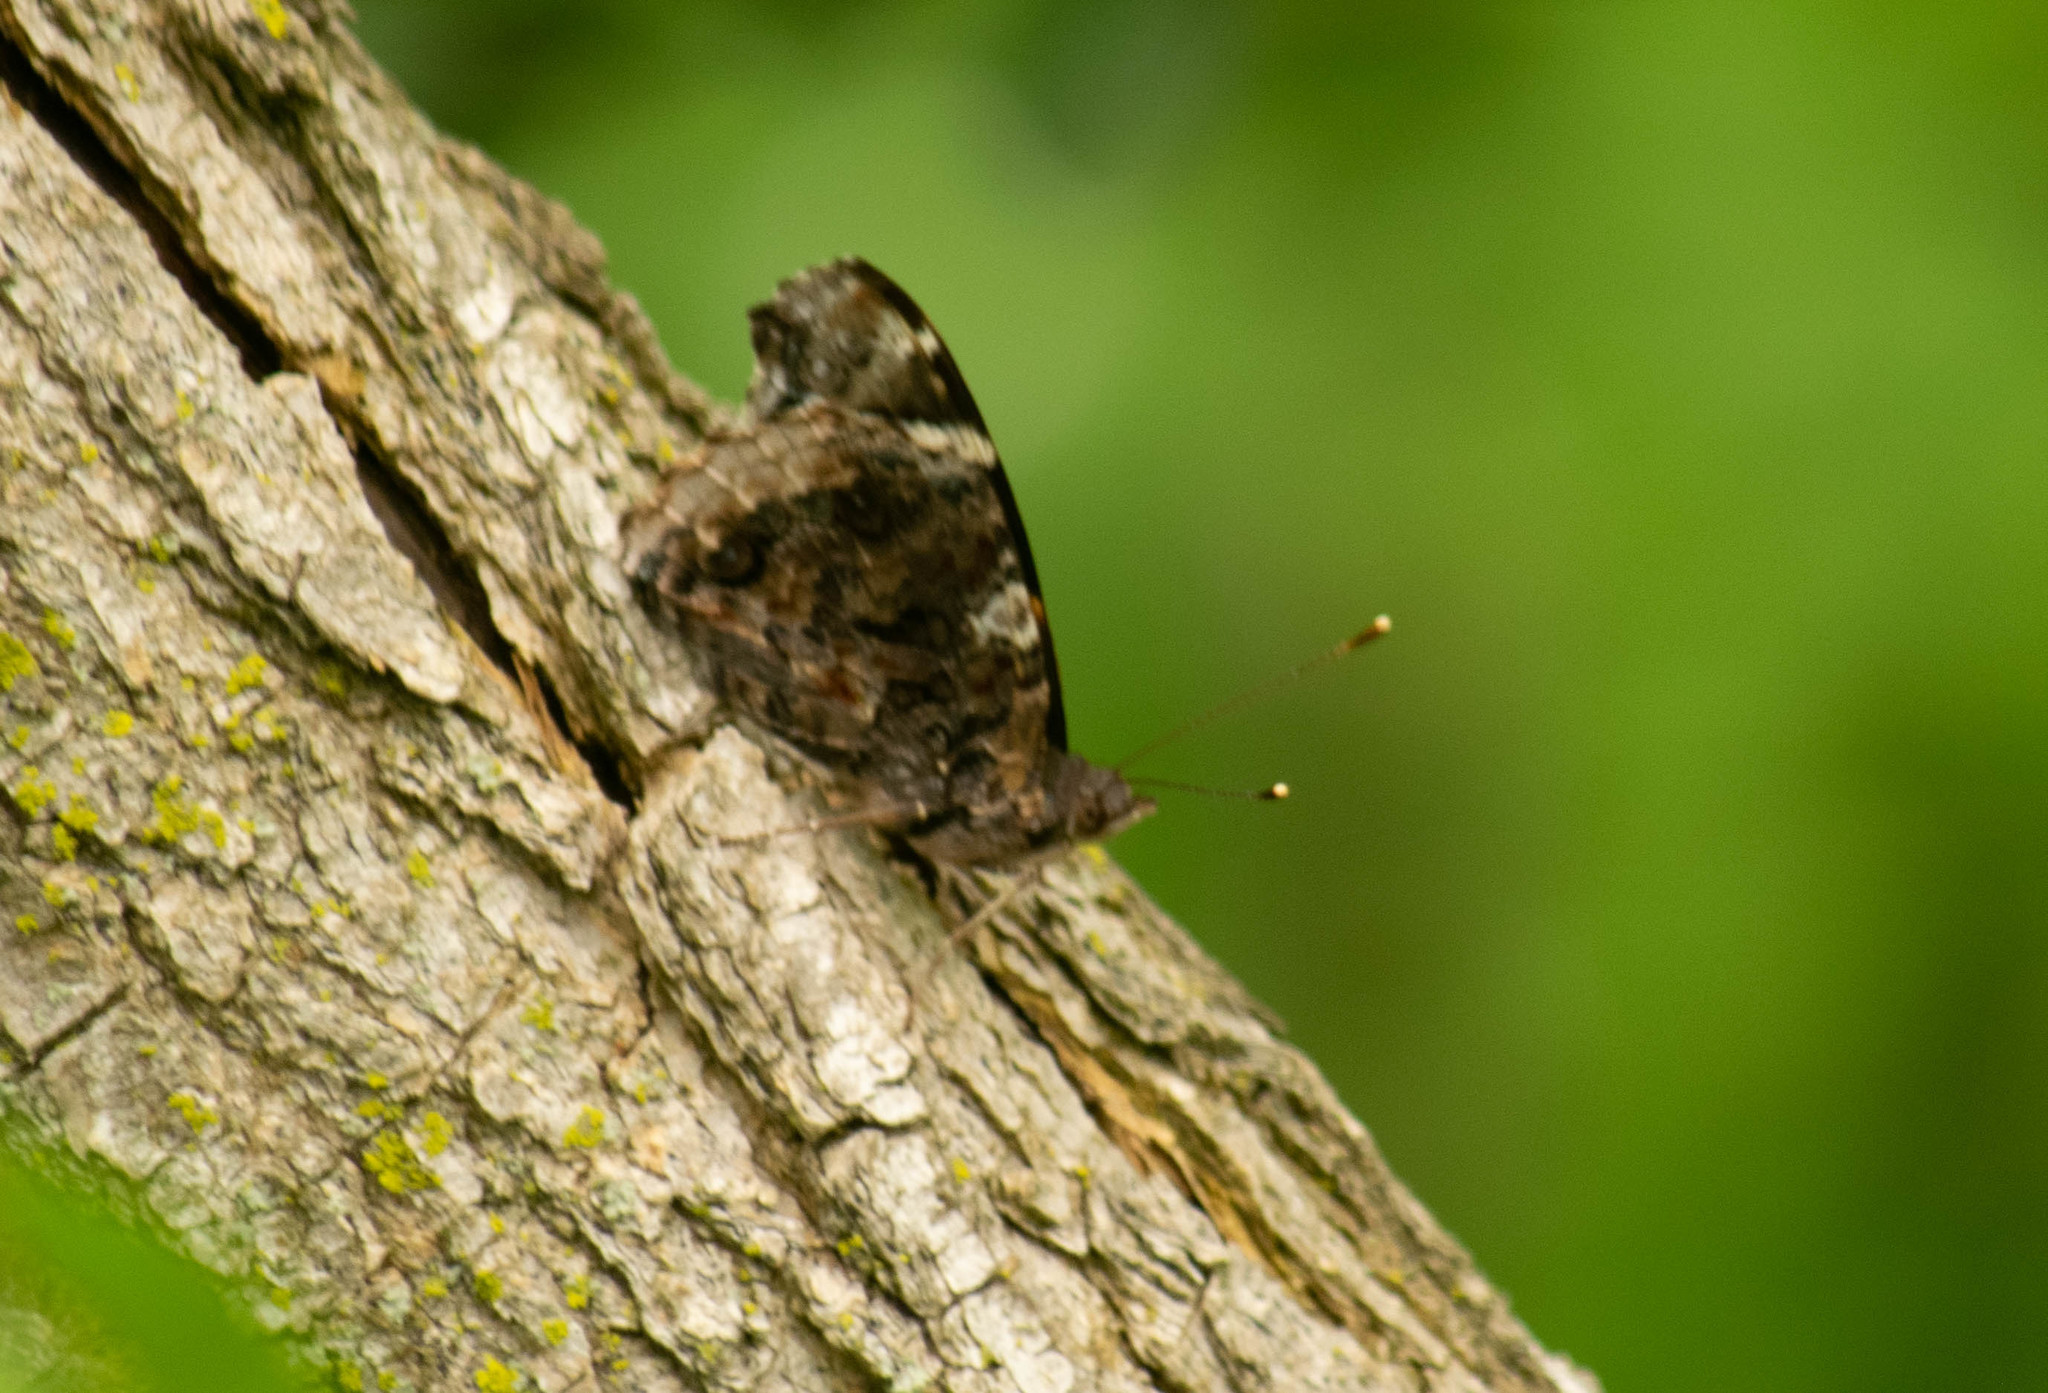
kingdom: Animalia
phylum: Arthropoda
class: Insecta
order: Lepidoptera
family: Nymphalidae
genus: Vanessa
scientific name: Vanessa atalanta
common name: Red admiral
